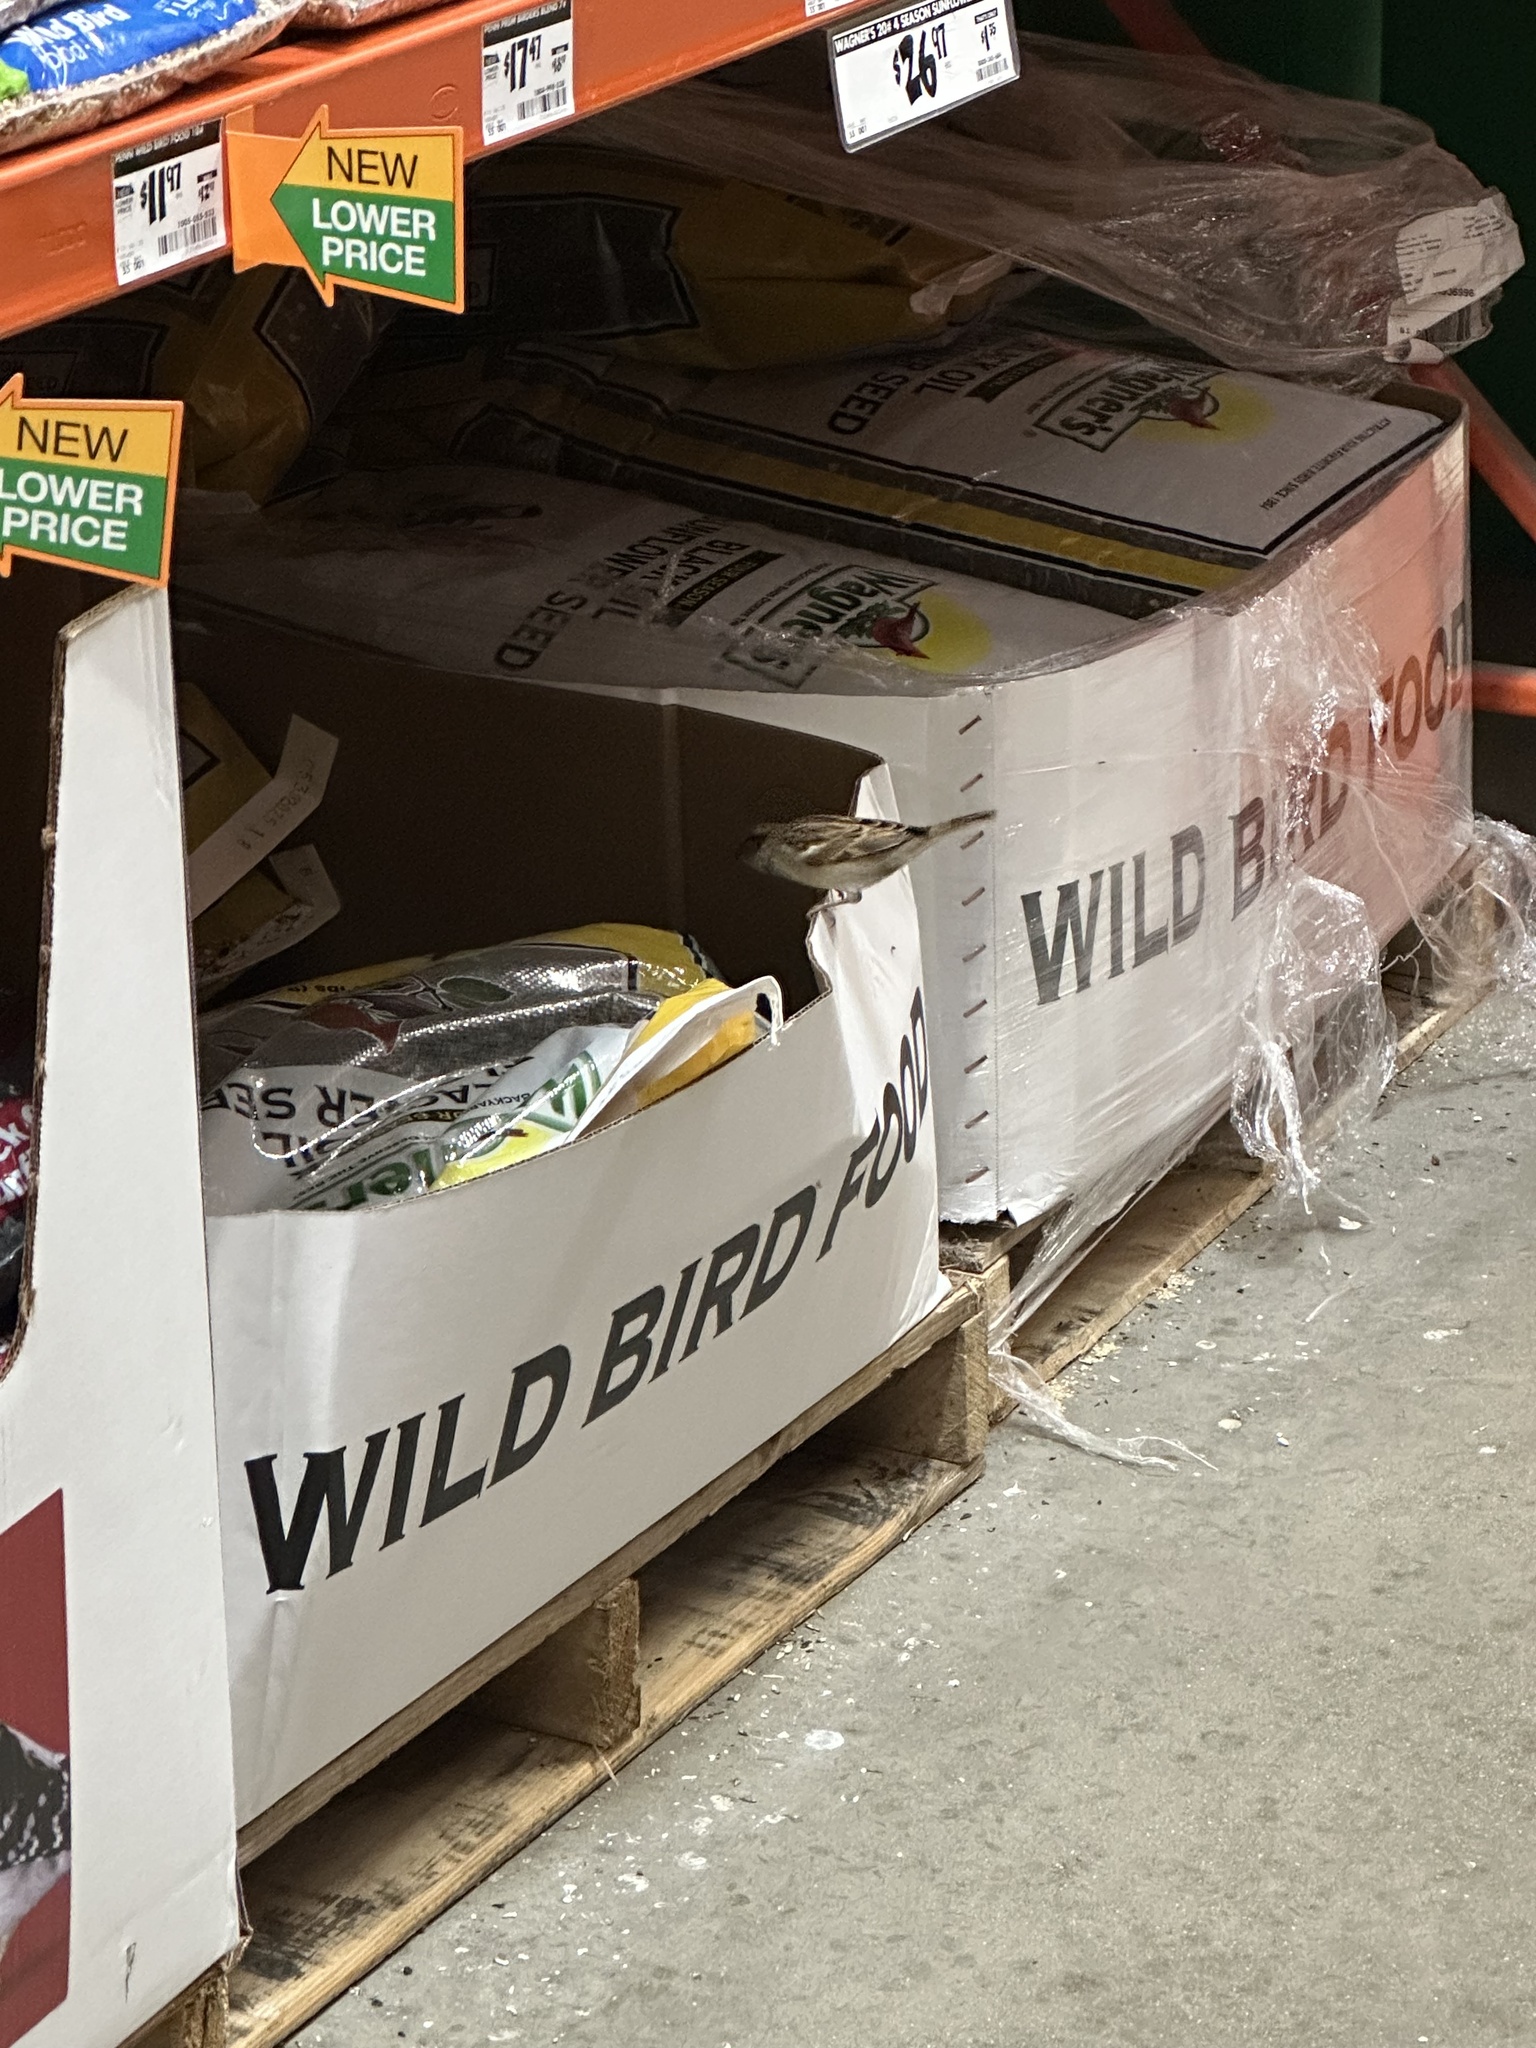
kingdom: Animalia
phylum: Chordata
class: Aves
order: Passeriformes
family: Passeridae
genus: Passer
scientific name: Passer domesticus
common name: House sparrow
